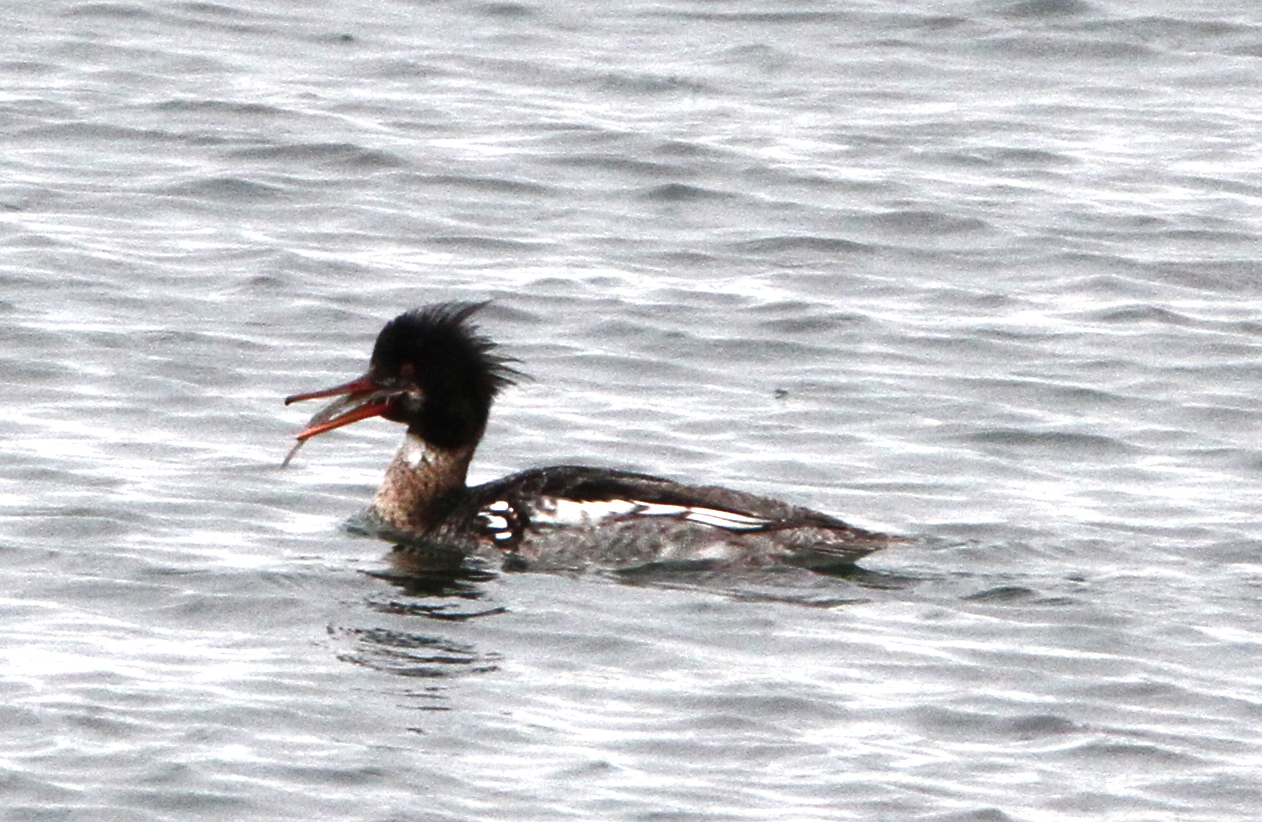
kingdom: Animalia
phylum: Chordata
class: Aves
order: Anseriformes
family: Anatidae
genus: Mergus
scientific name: Mergus serrator
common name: Red-breasted merganser
